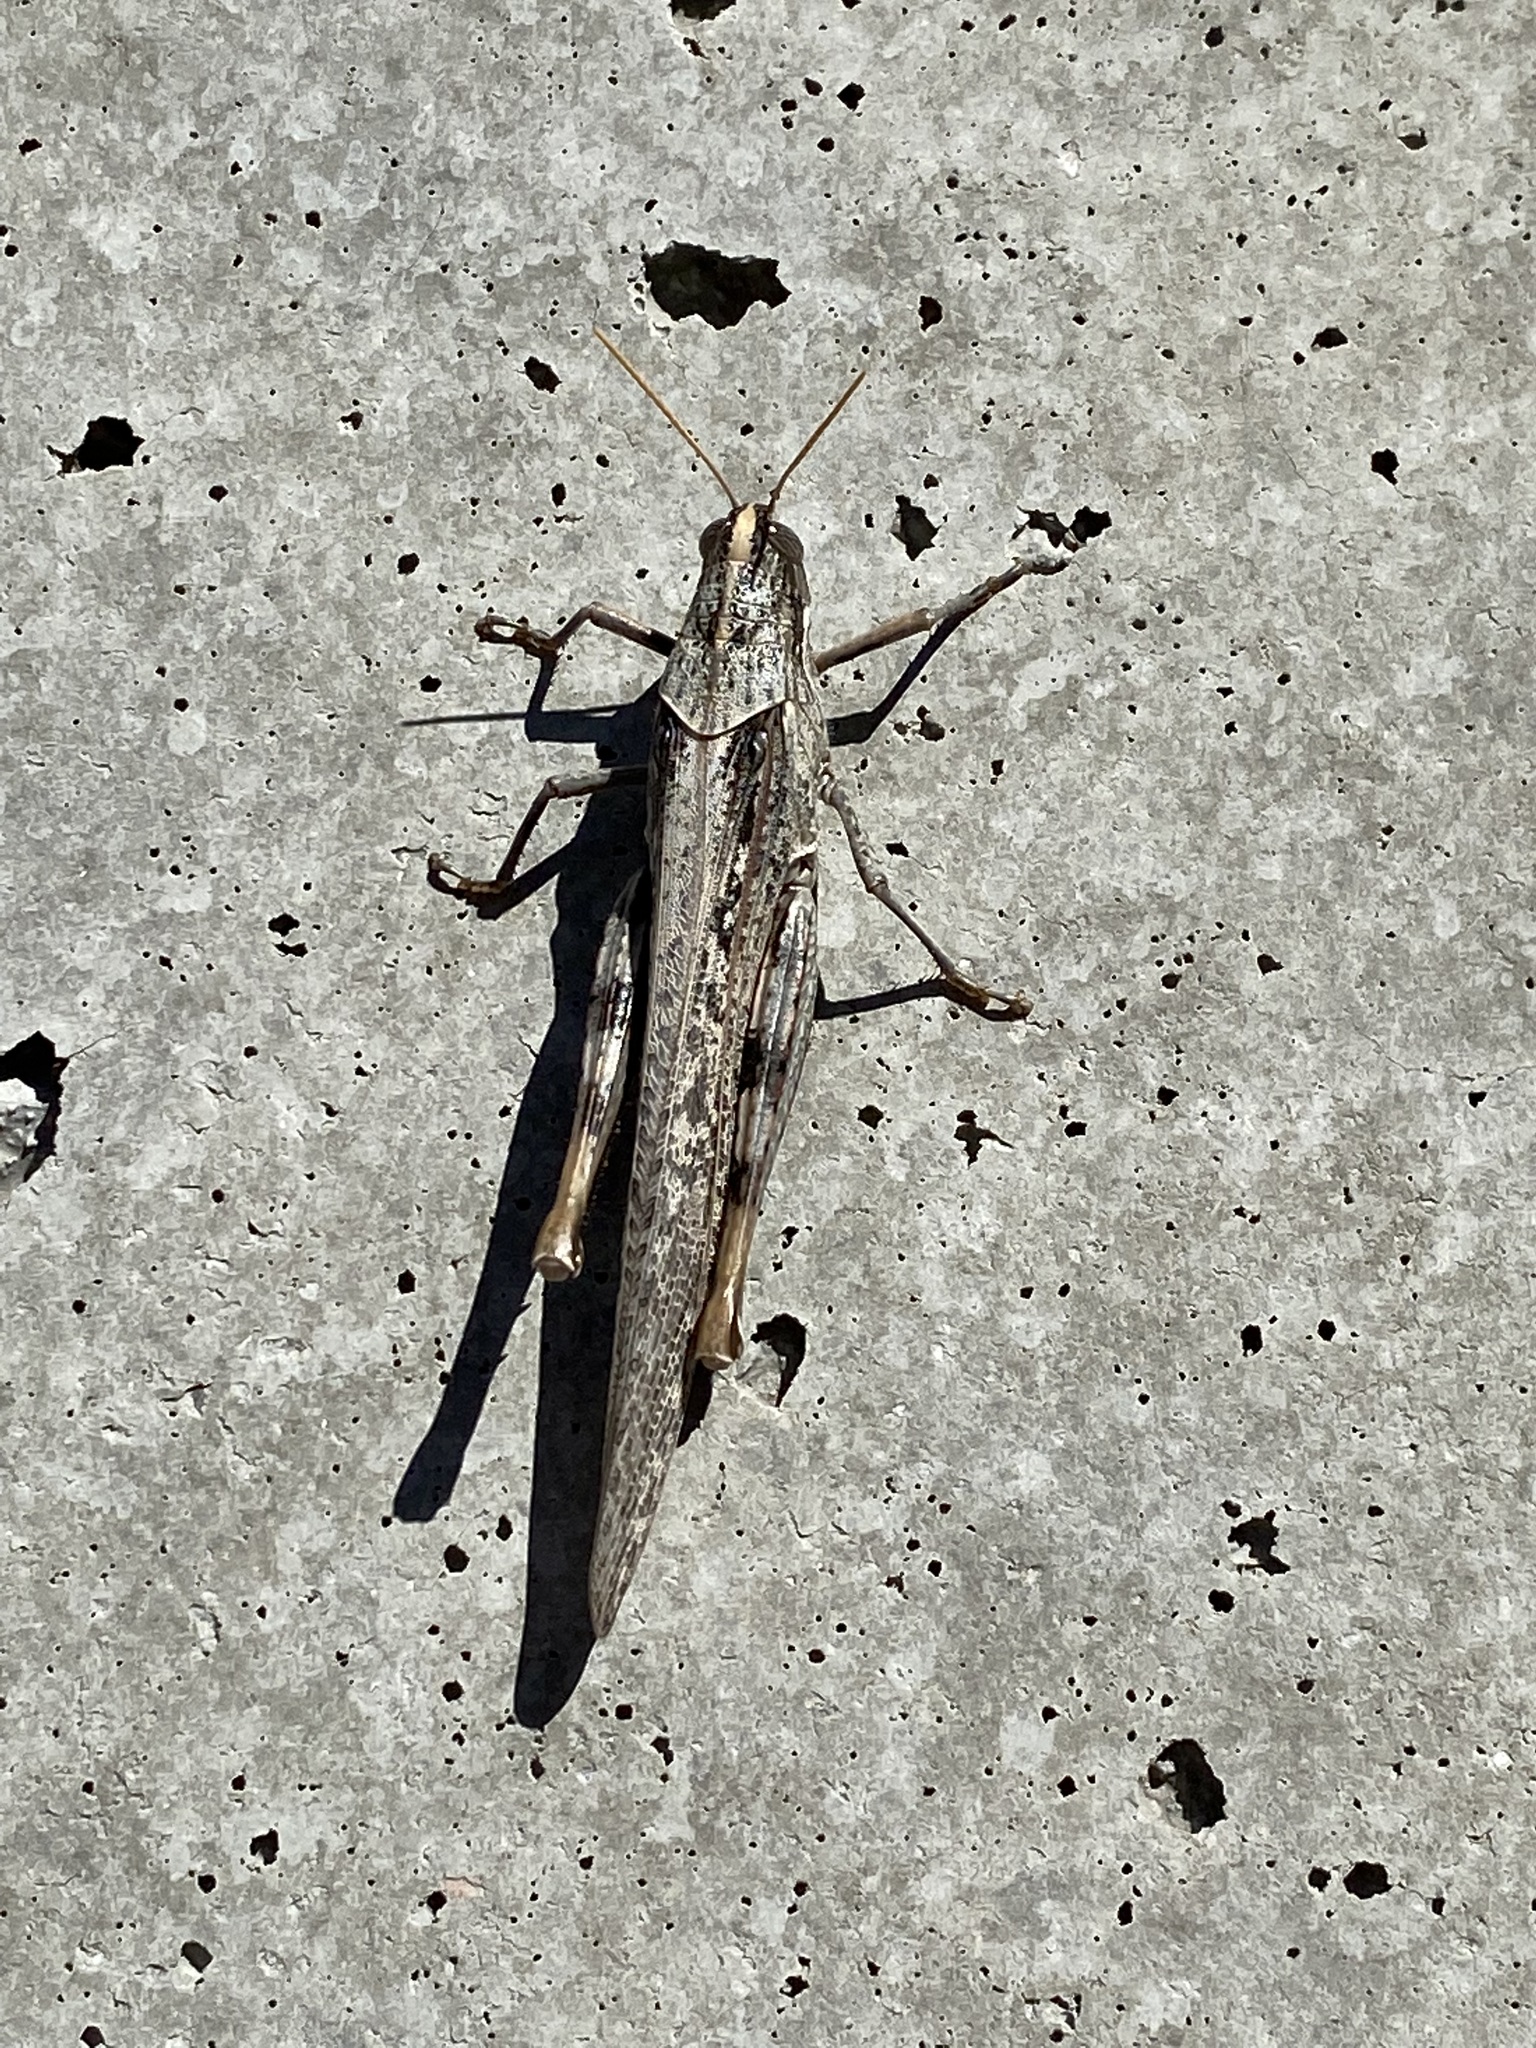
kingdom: Animalia
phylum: Arthropoda
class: Insecta
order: Orthoptera
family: Acrididae
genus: Schistocerca
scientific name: Schistocerca nitens
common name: Vagrant grasshopper
